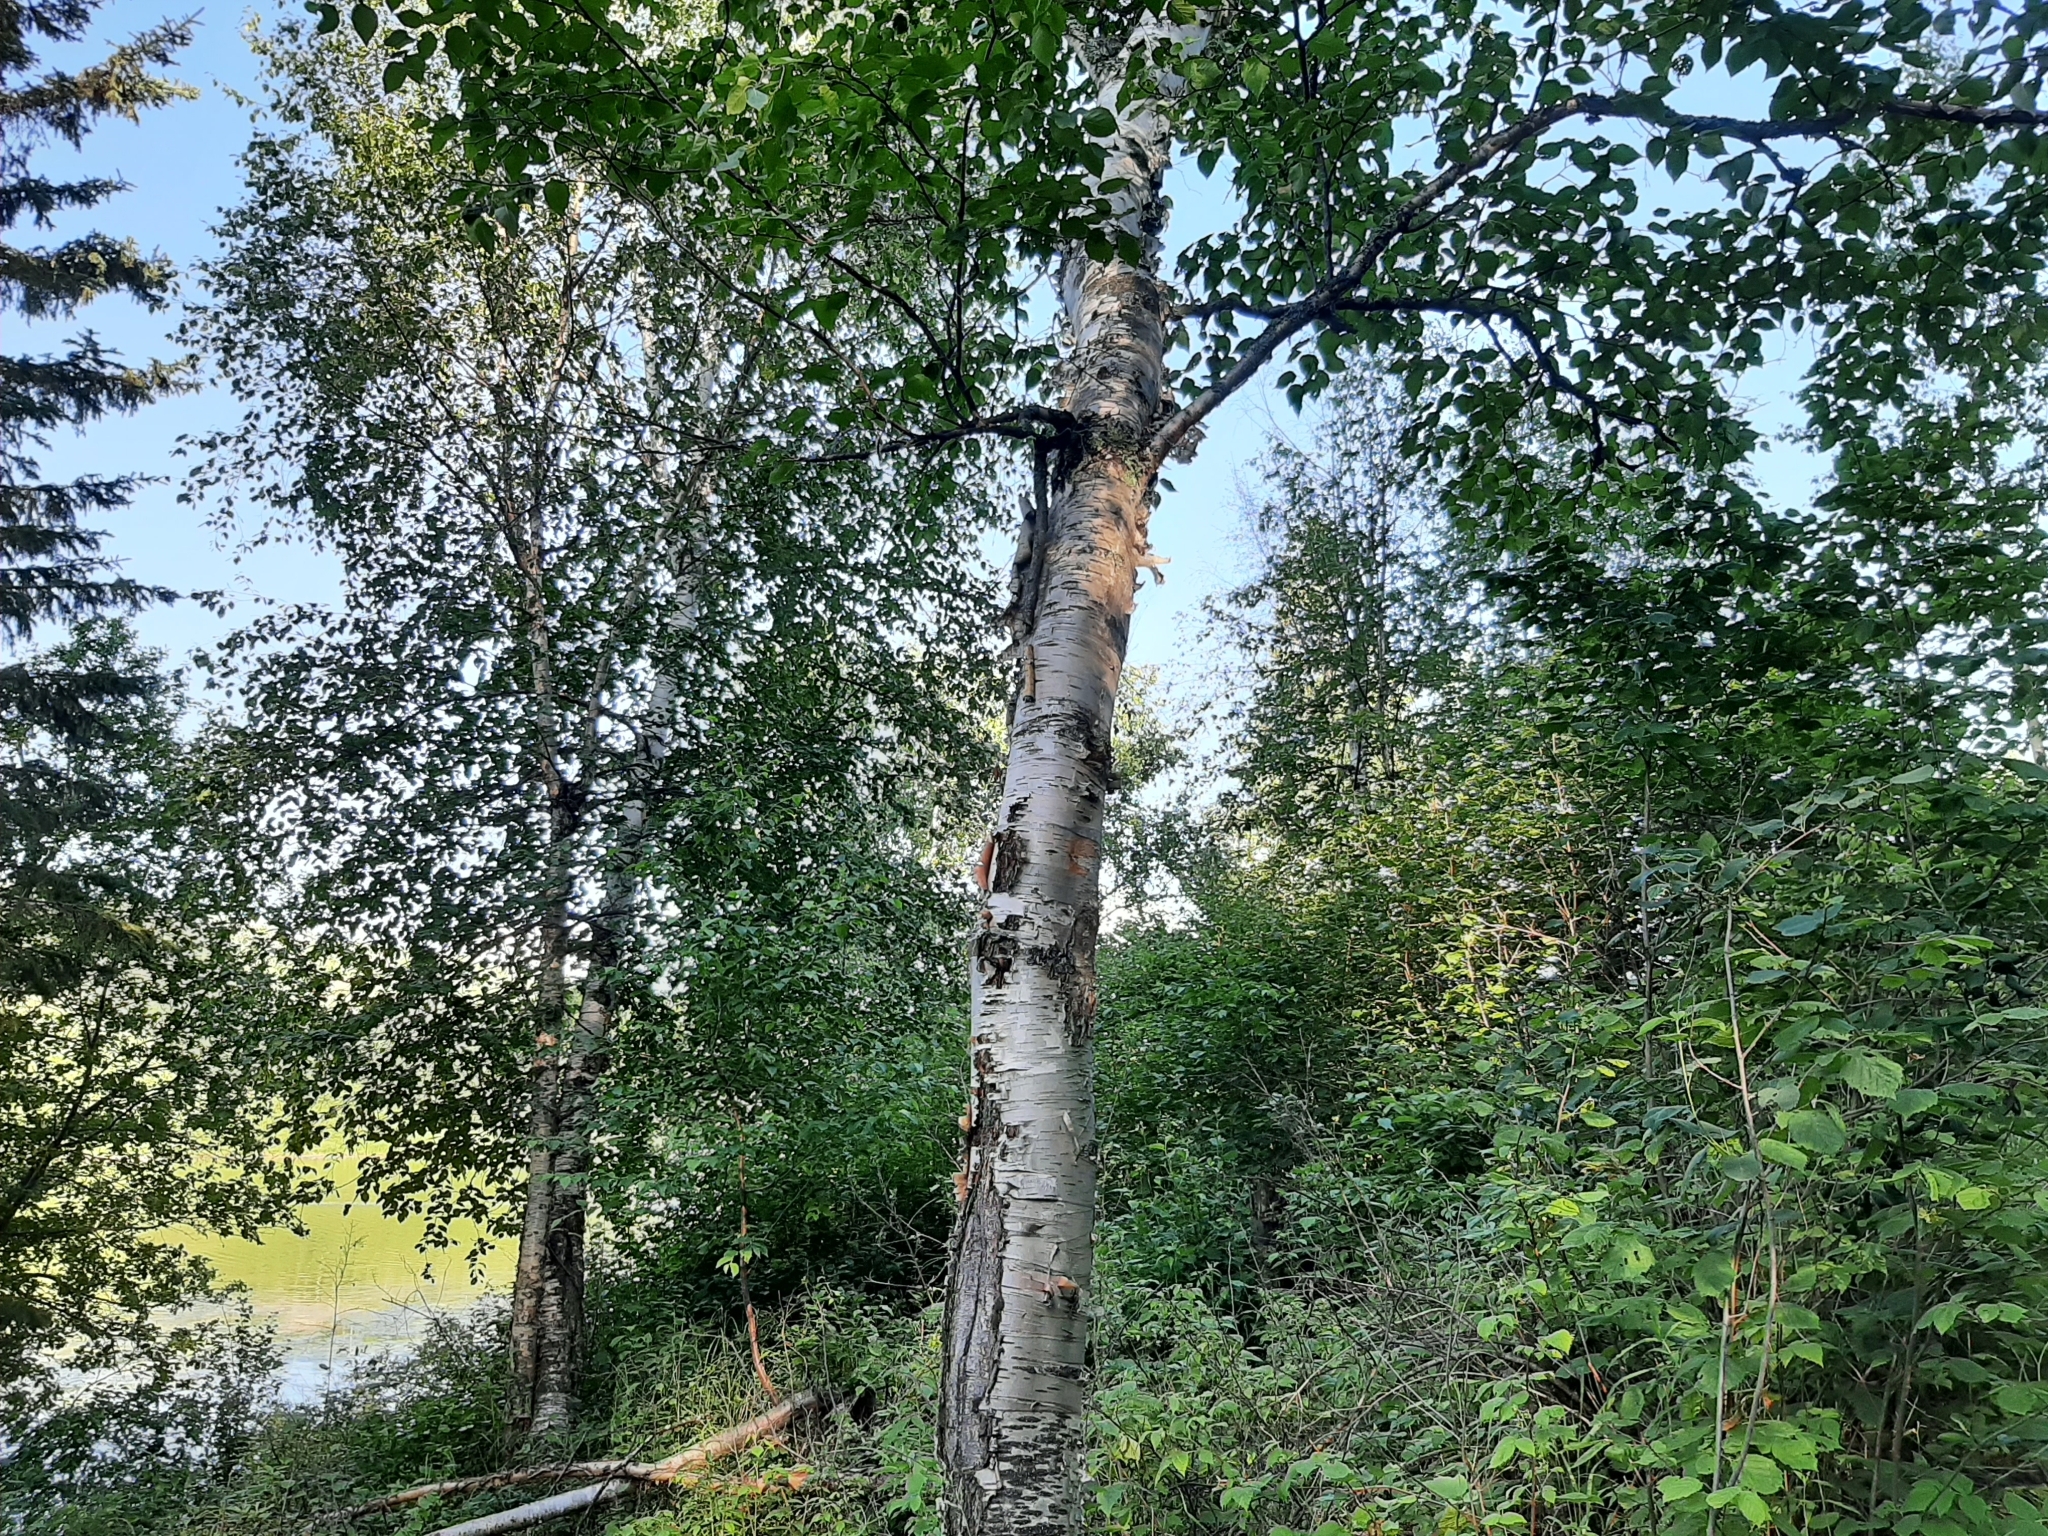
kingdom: Plantae
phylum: Tracheophyta
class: Magnoliopsida
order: Fagales
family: Betulaceae
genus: Betula
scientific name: Betula papyrifera
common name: Paper birch
